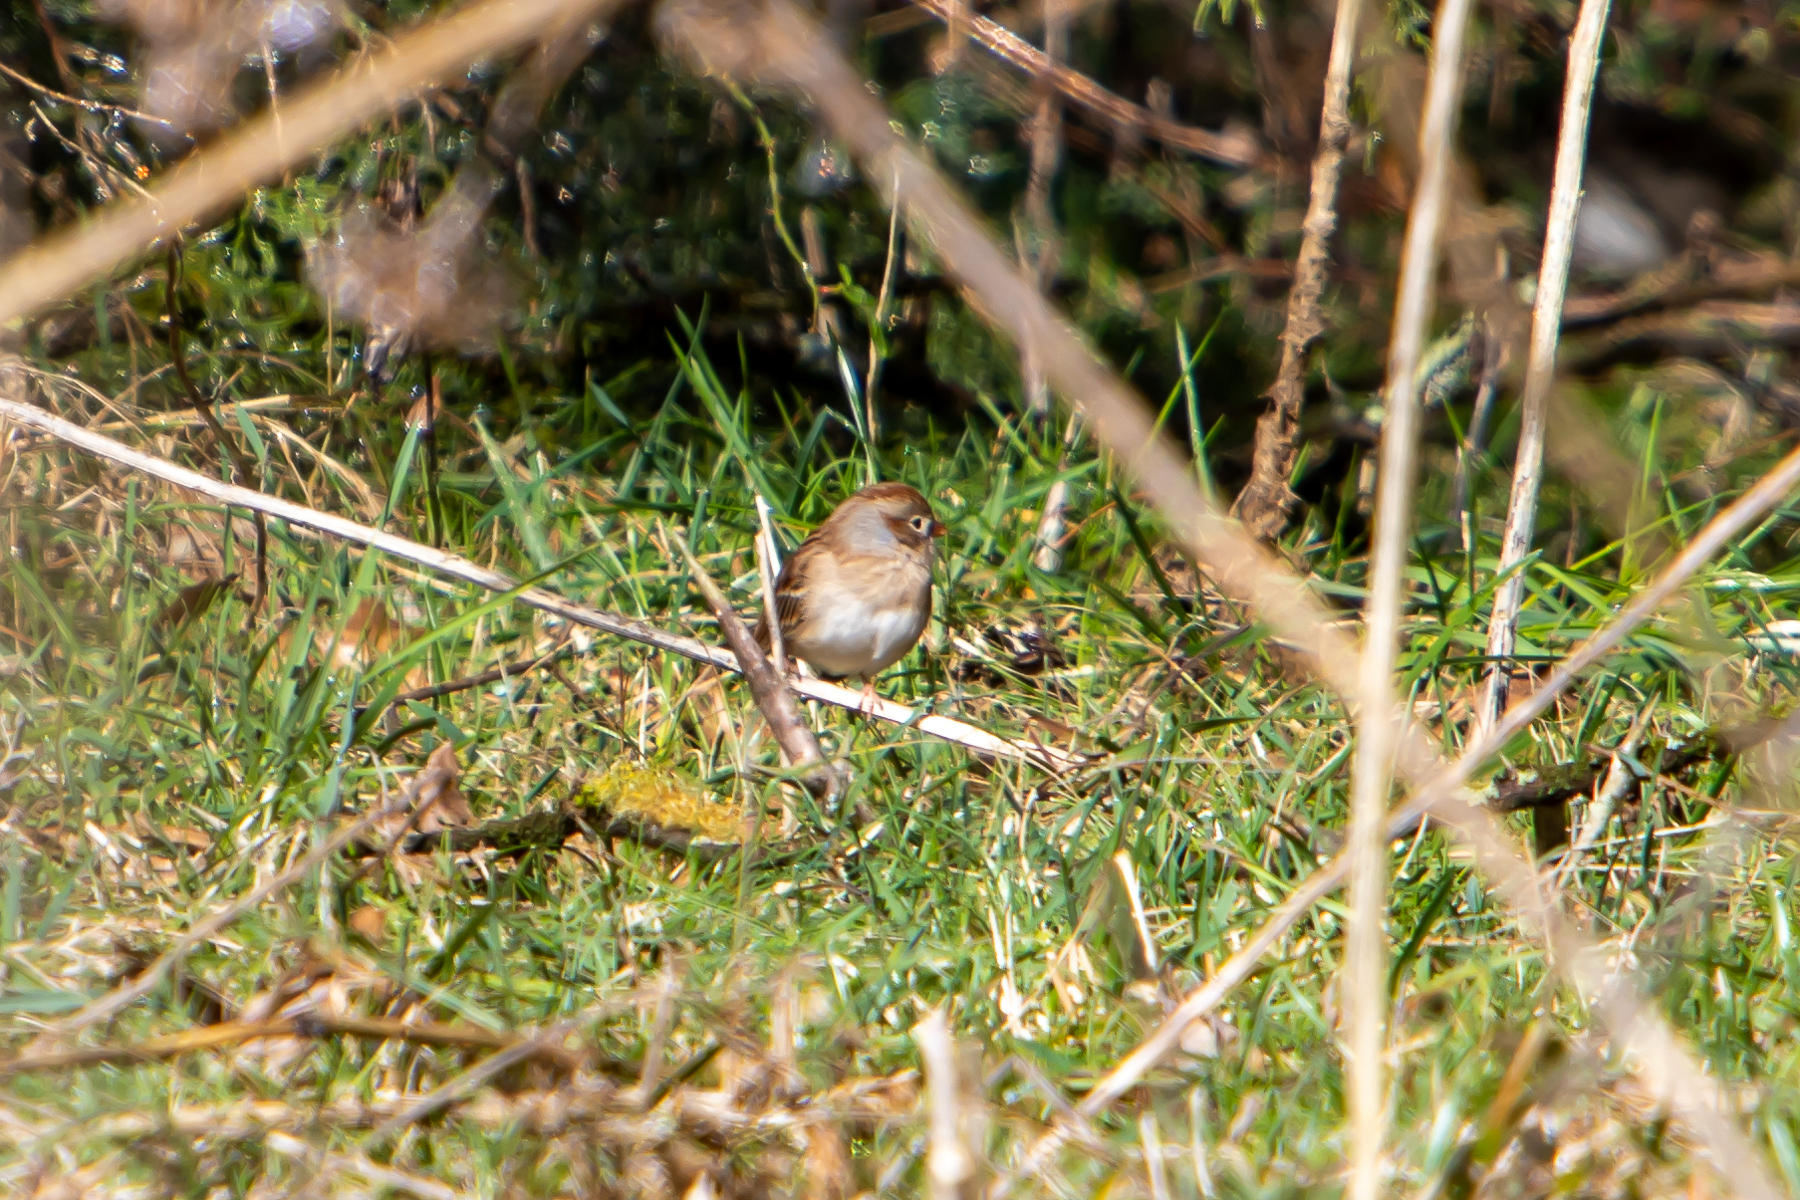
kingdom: Animalia
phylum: Chordata
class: Aves
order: Passeriformes
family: Passerellidae
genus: Spizella
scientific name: Spizella pusilla
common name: Field sparrow
